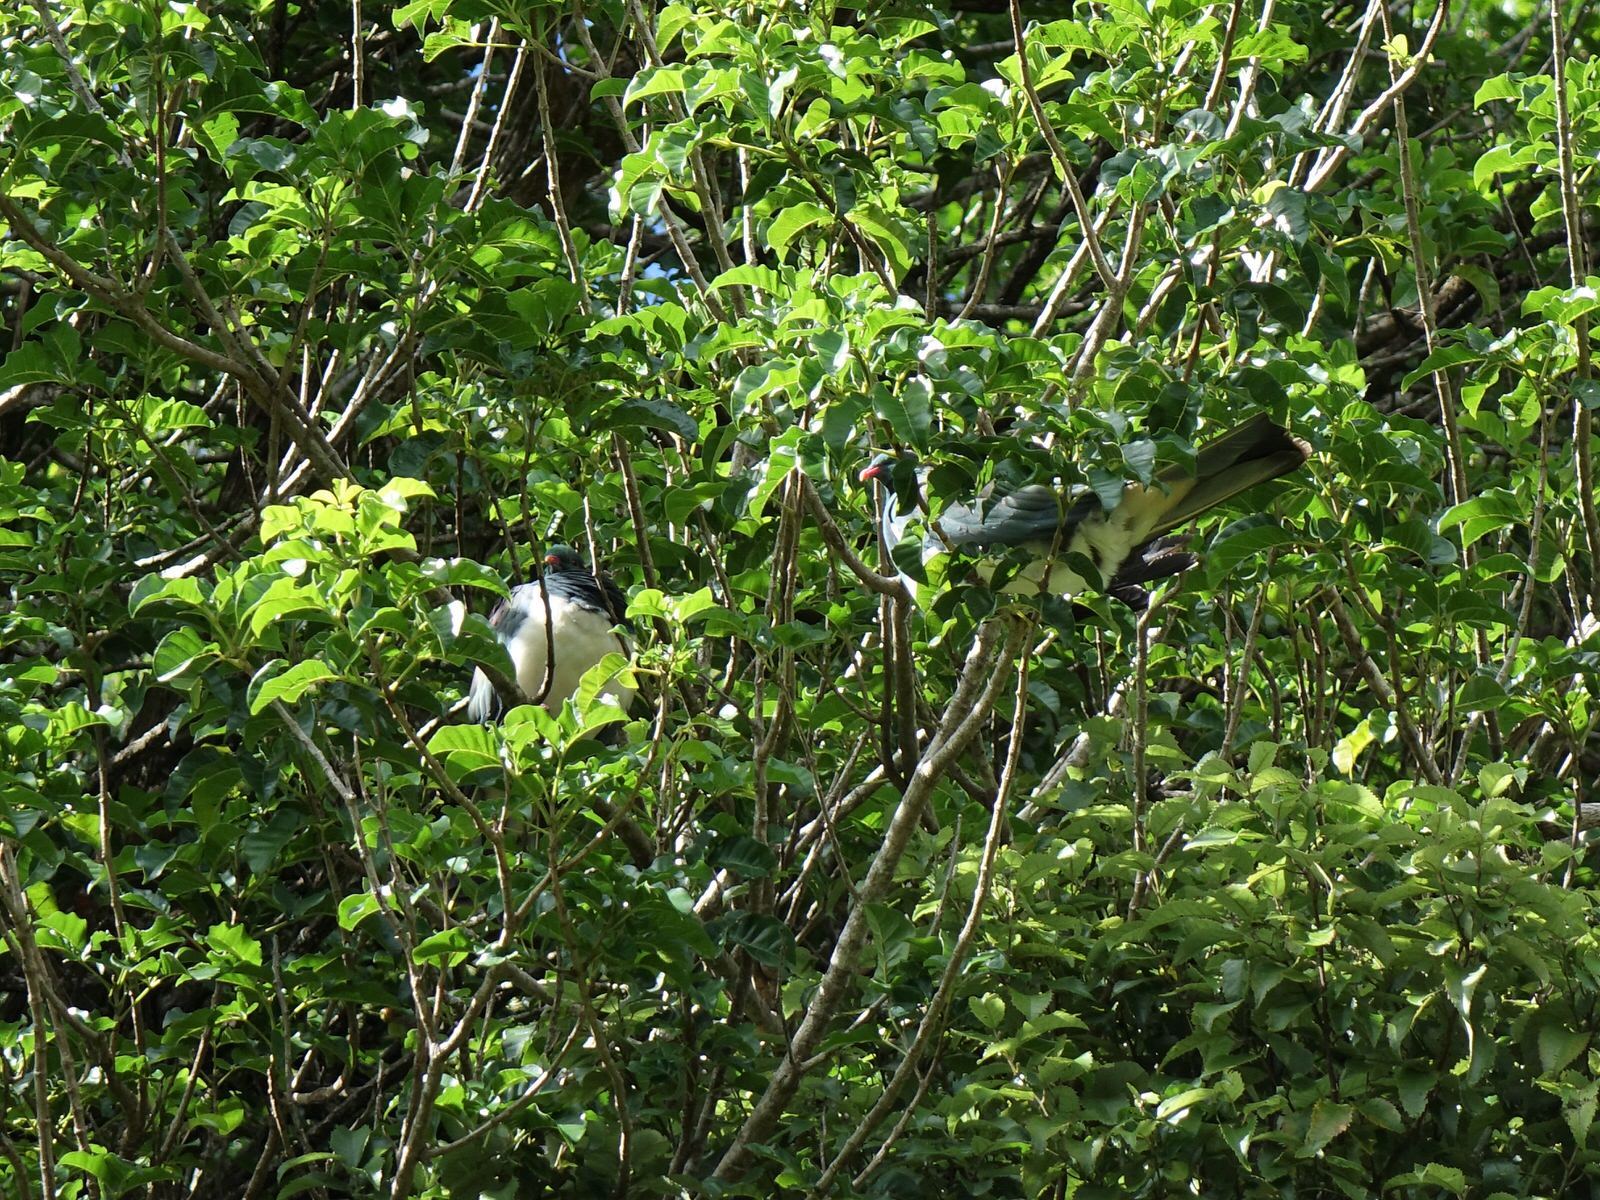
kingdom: Animalia
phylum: Chordata
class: Aves
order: Columbiformes
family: Columbidae
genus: Hemiphaga
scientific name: Hemiphaga novaeseelandiae
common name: New zealand pigeon
